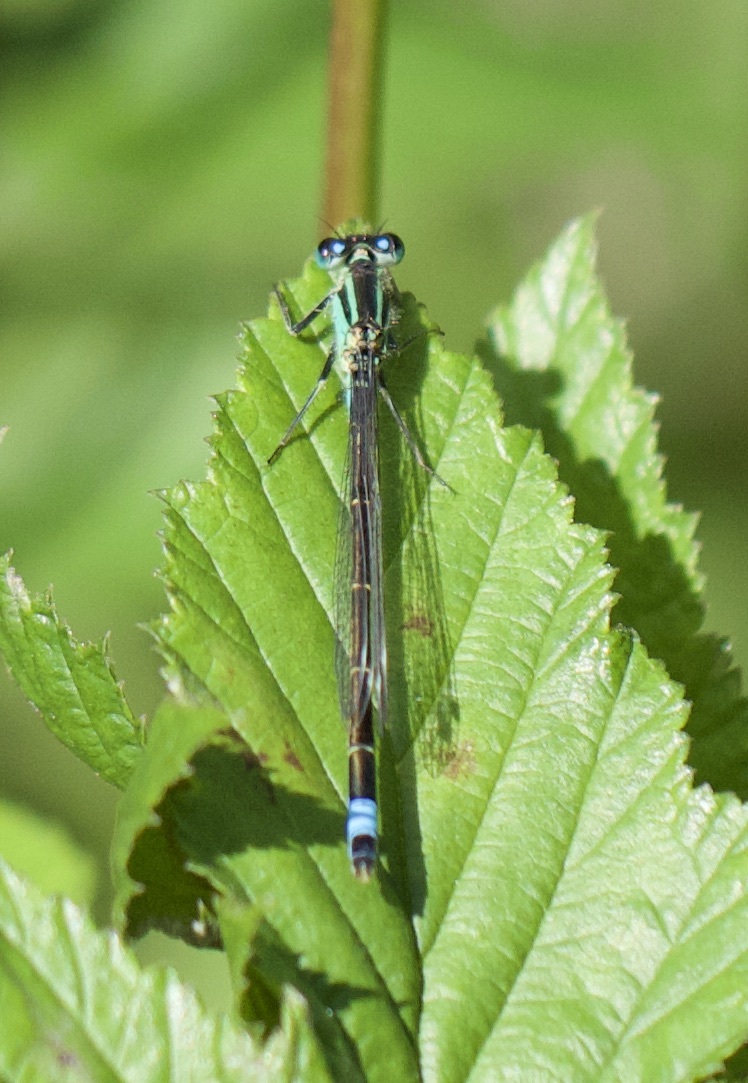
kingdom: Animalia
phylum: Arthropoda
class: Insecta
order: Odonata
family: Coenagrionidae
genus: Ischnura
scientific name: Ischnura elegans
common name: Blue-tailed damselfly
